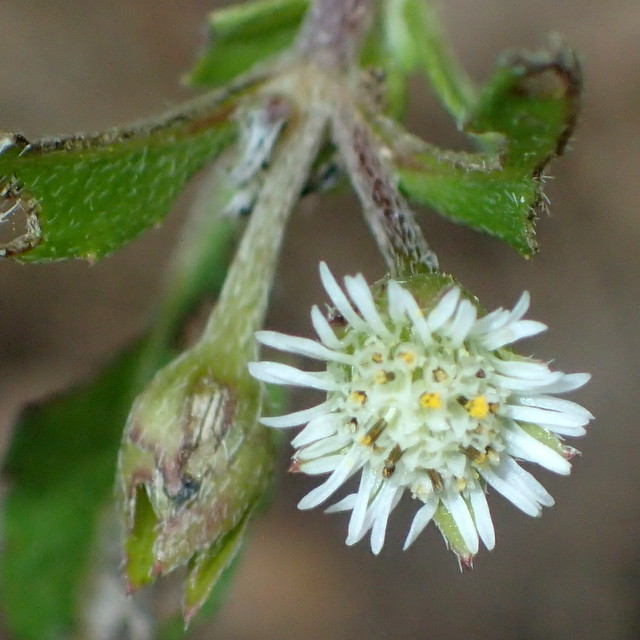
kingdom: Plantae
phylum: Tracheophyta
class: Magnoliopsida
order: Asterales
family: Asteraceae
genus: Eclipta
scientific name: Eclipta prostrata
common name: False daisy
